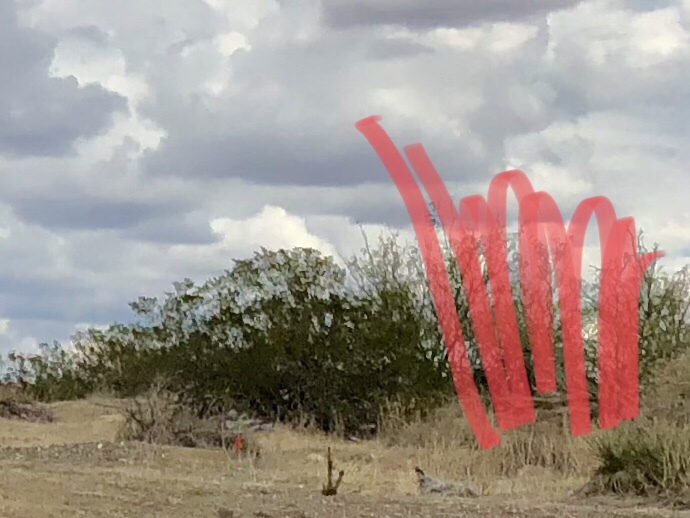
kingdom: Plantae
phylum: Tracheophyta
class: Magnoliopsida
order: Zygophyllales
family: Zygophyllaceae
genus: Larrea
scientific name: Larrea tridentata
